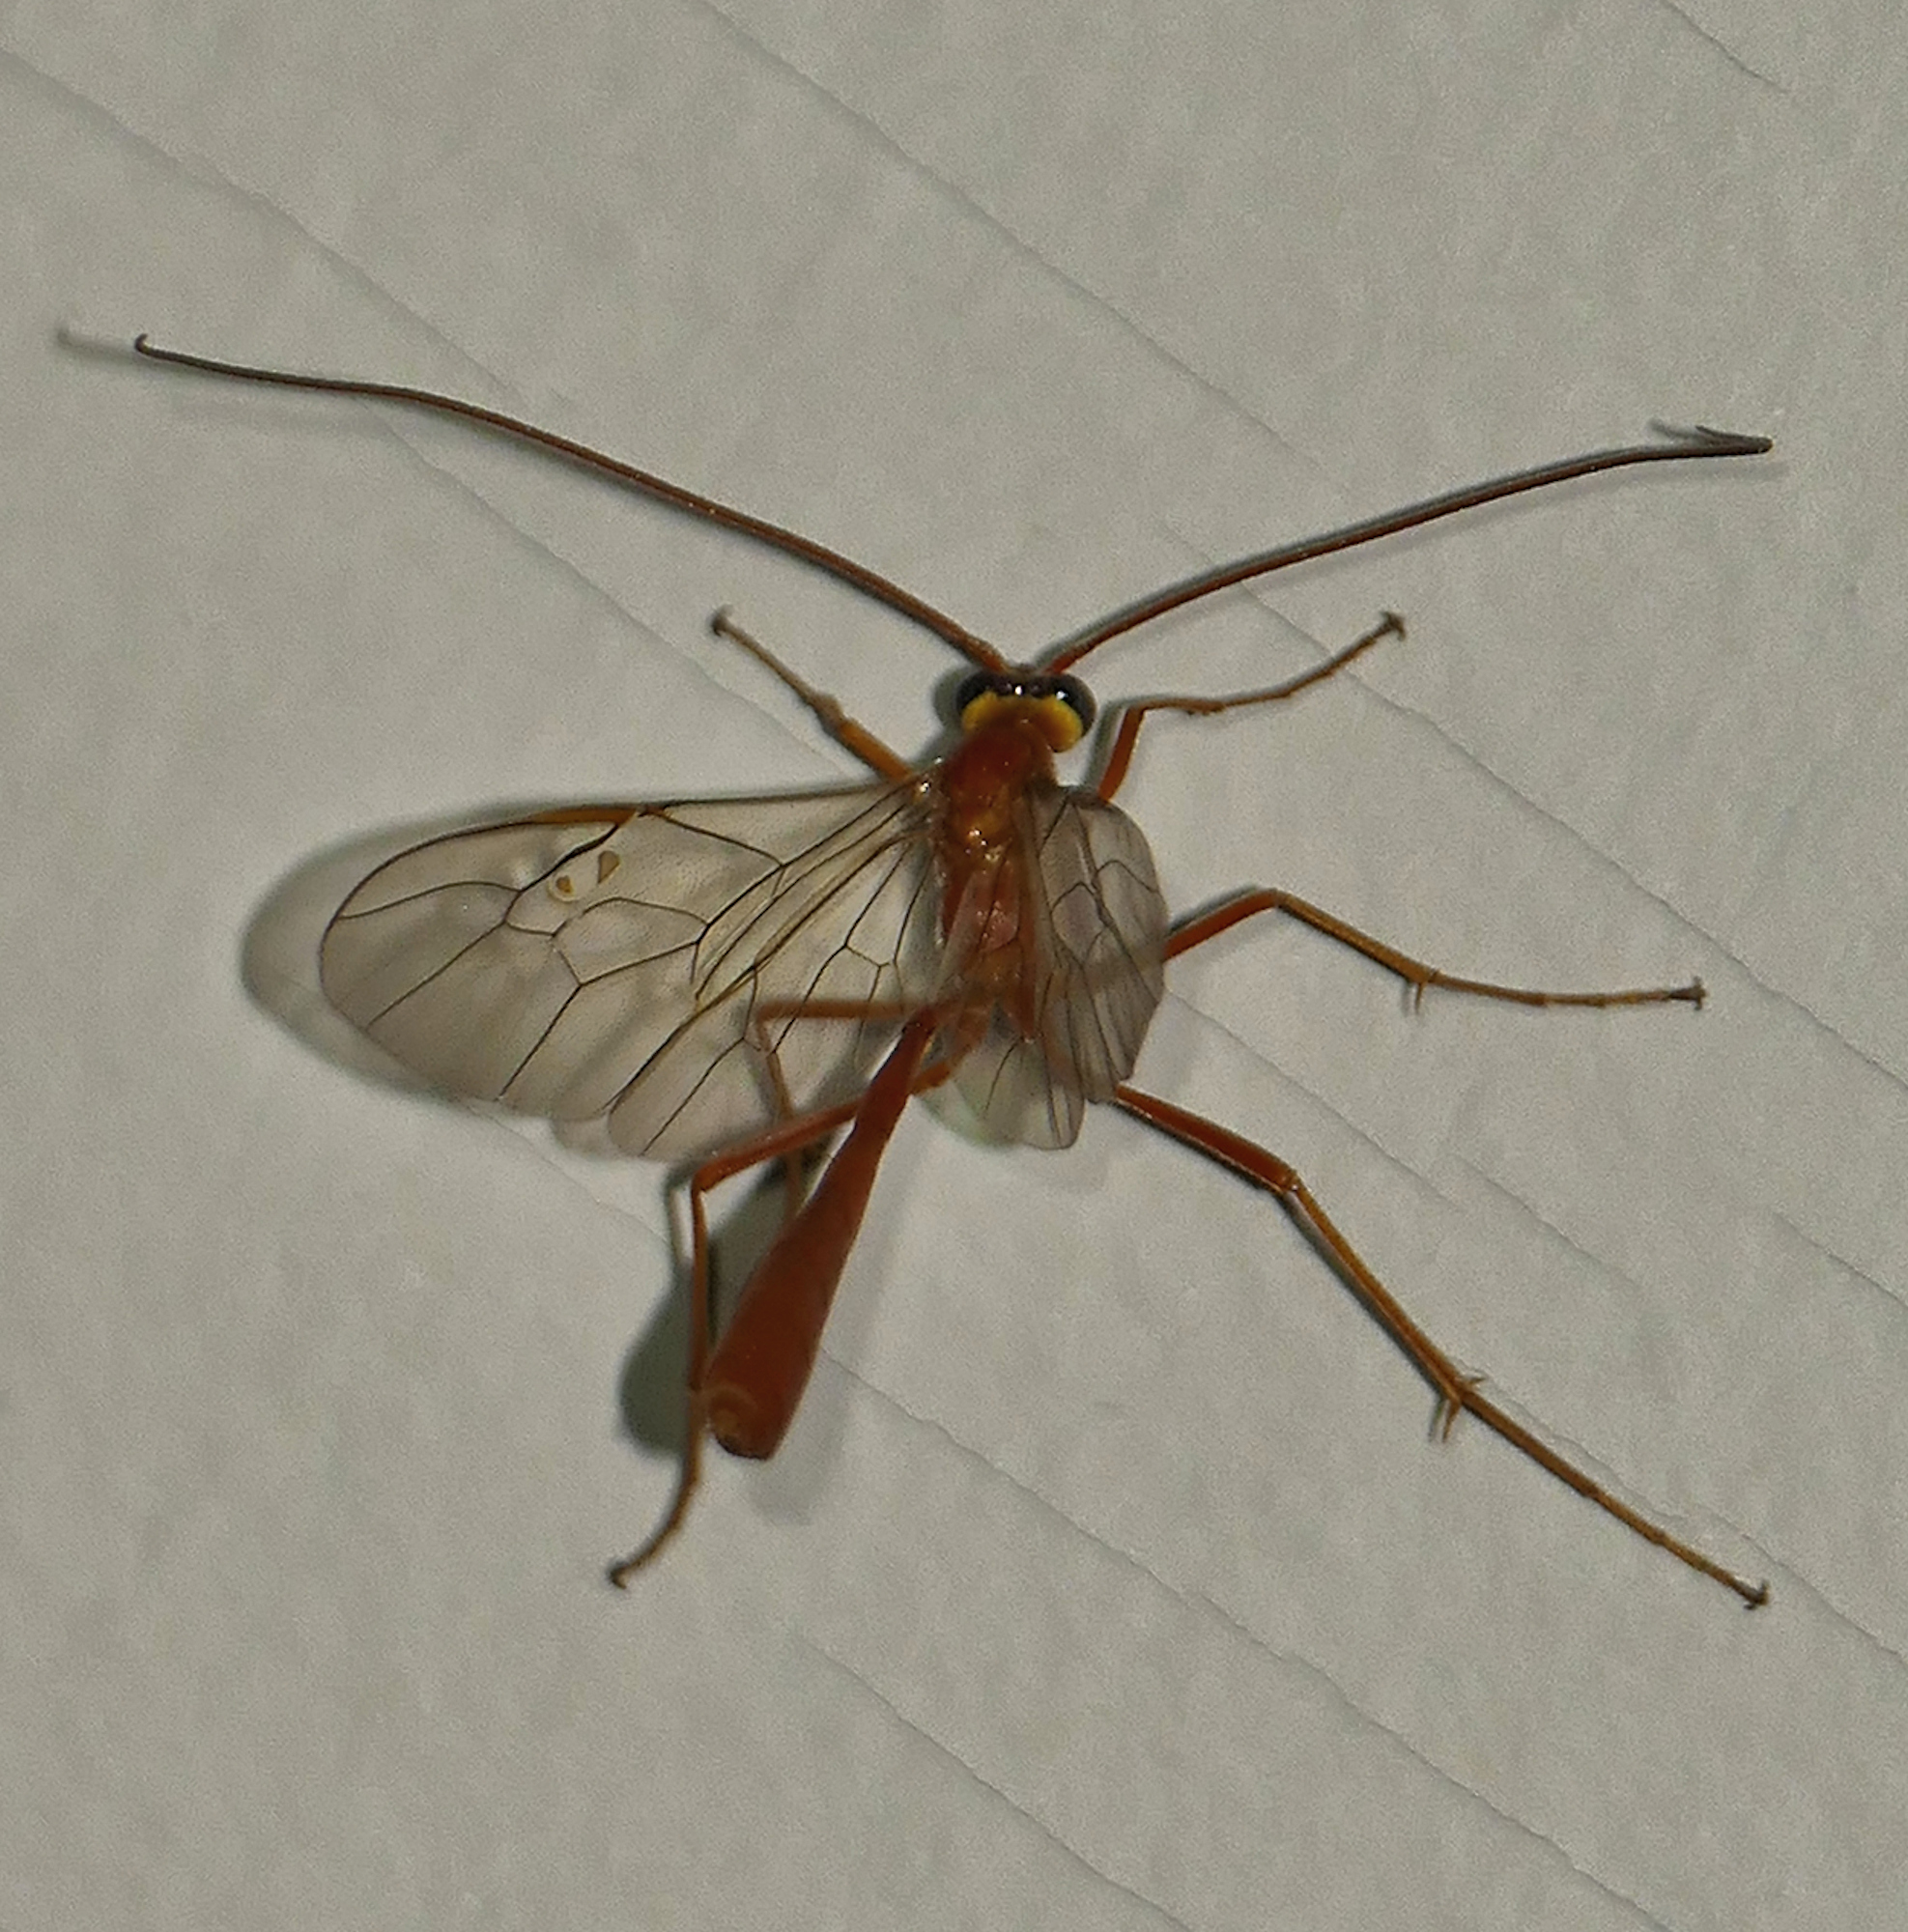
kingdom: Animalia
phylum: Arthropoda
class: Insecta
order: Hymenoptera
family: Ichneumonidae
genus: Enicospilus
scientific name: Enicospilus purgatus
